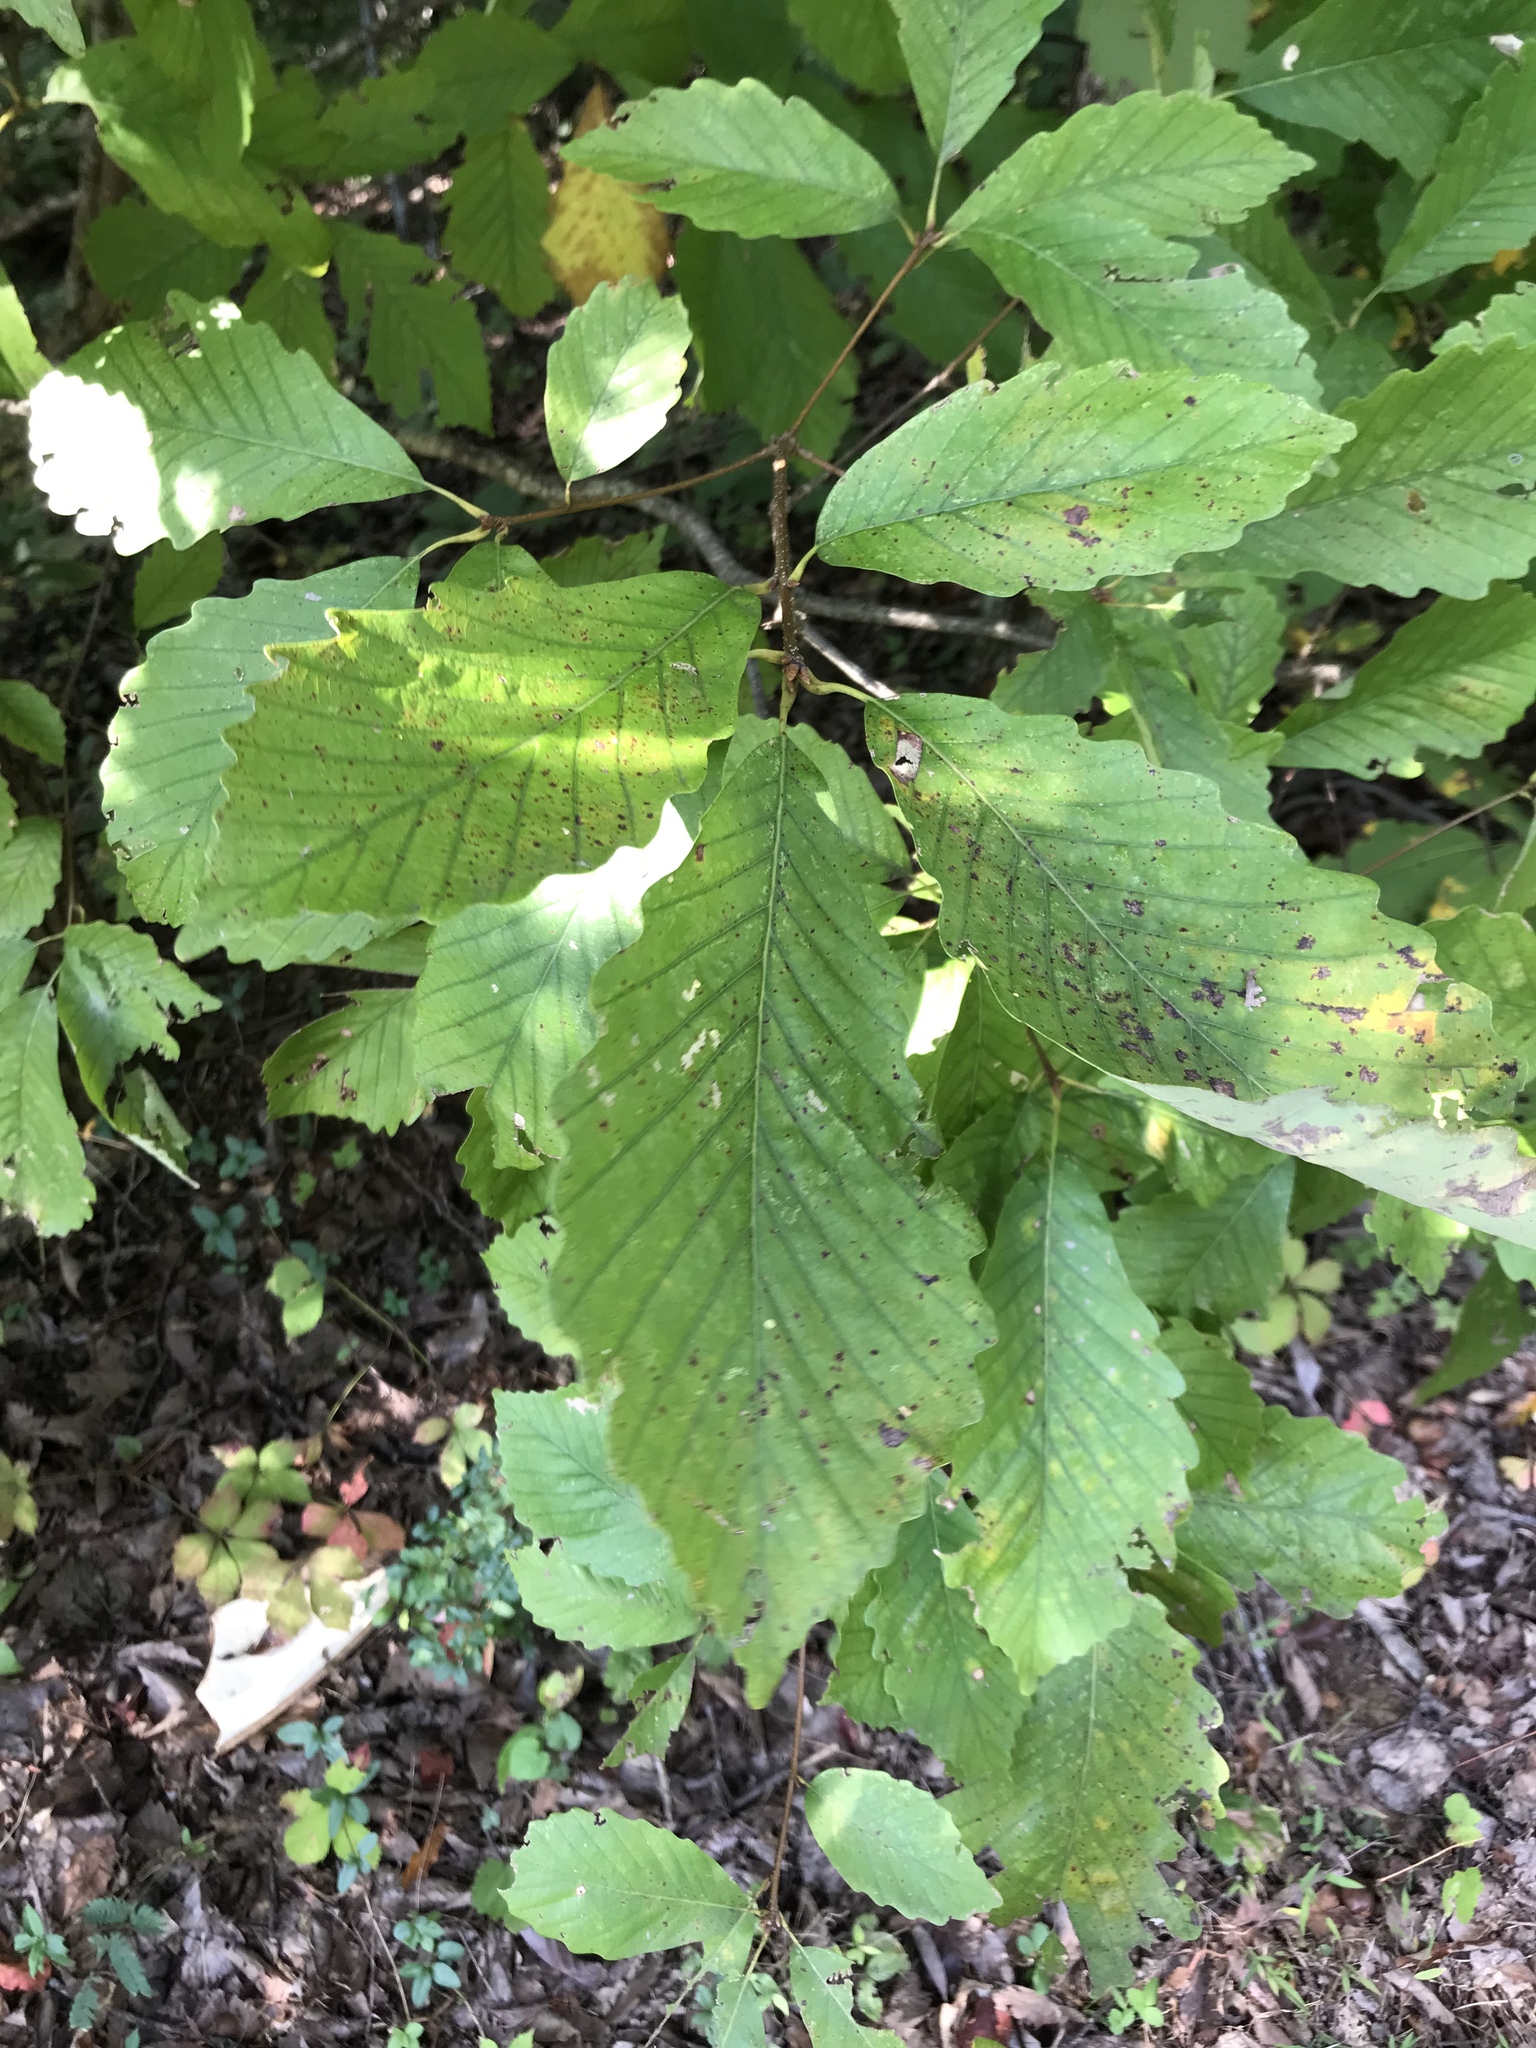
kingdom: Plantae
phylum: Tracheophyta
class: Magnoliopsida
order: Fagales
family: Fagaceae
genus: Quercus
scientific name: Quercus montana
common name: Chestnut oak
